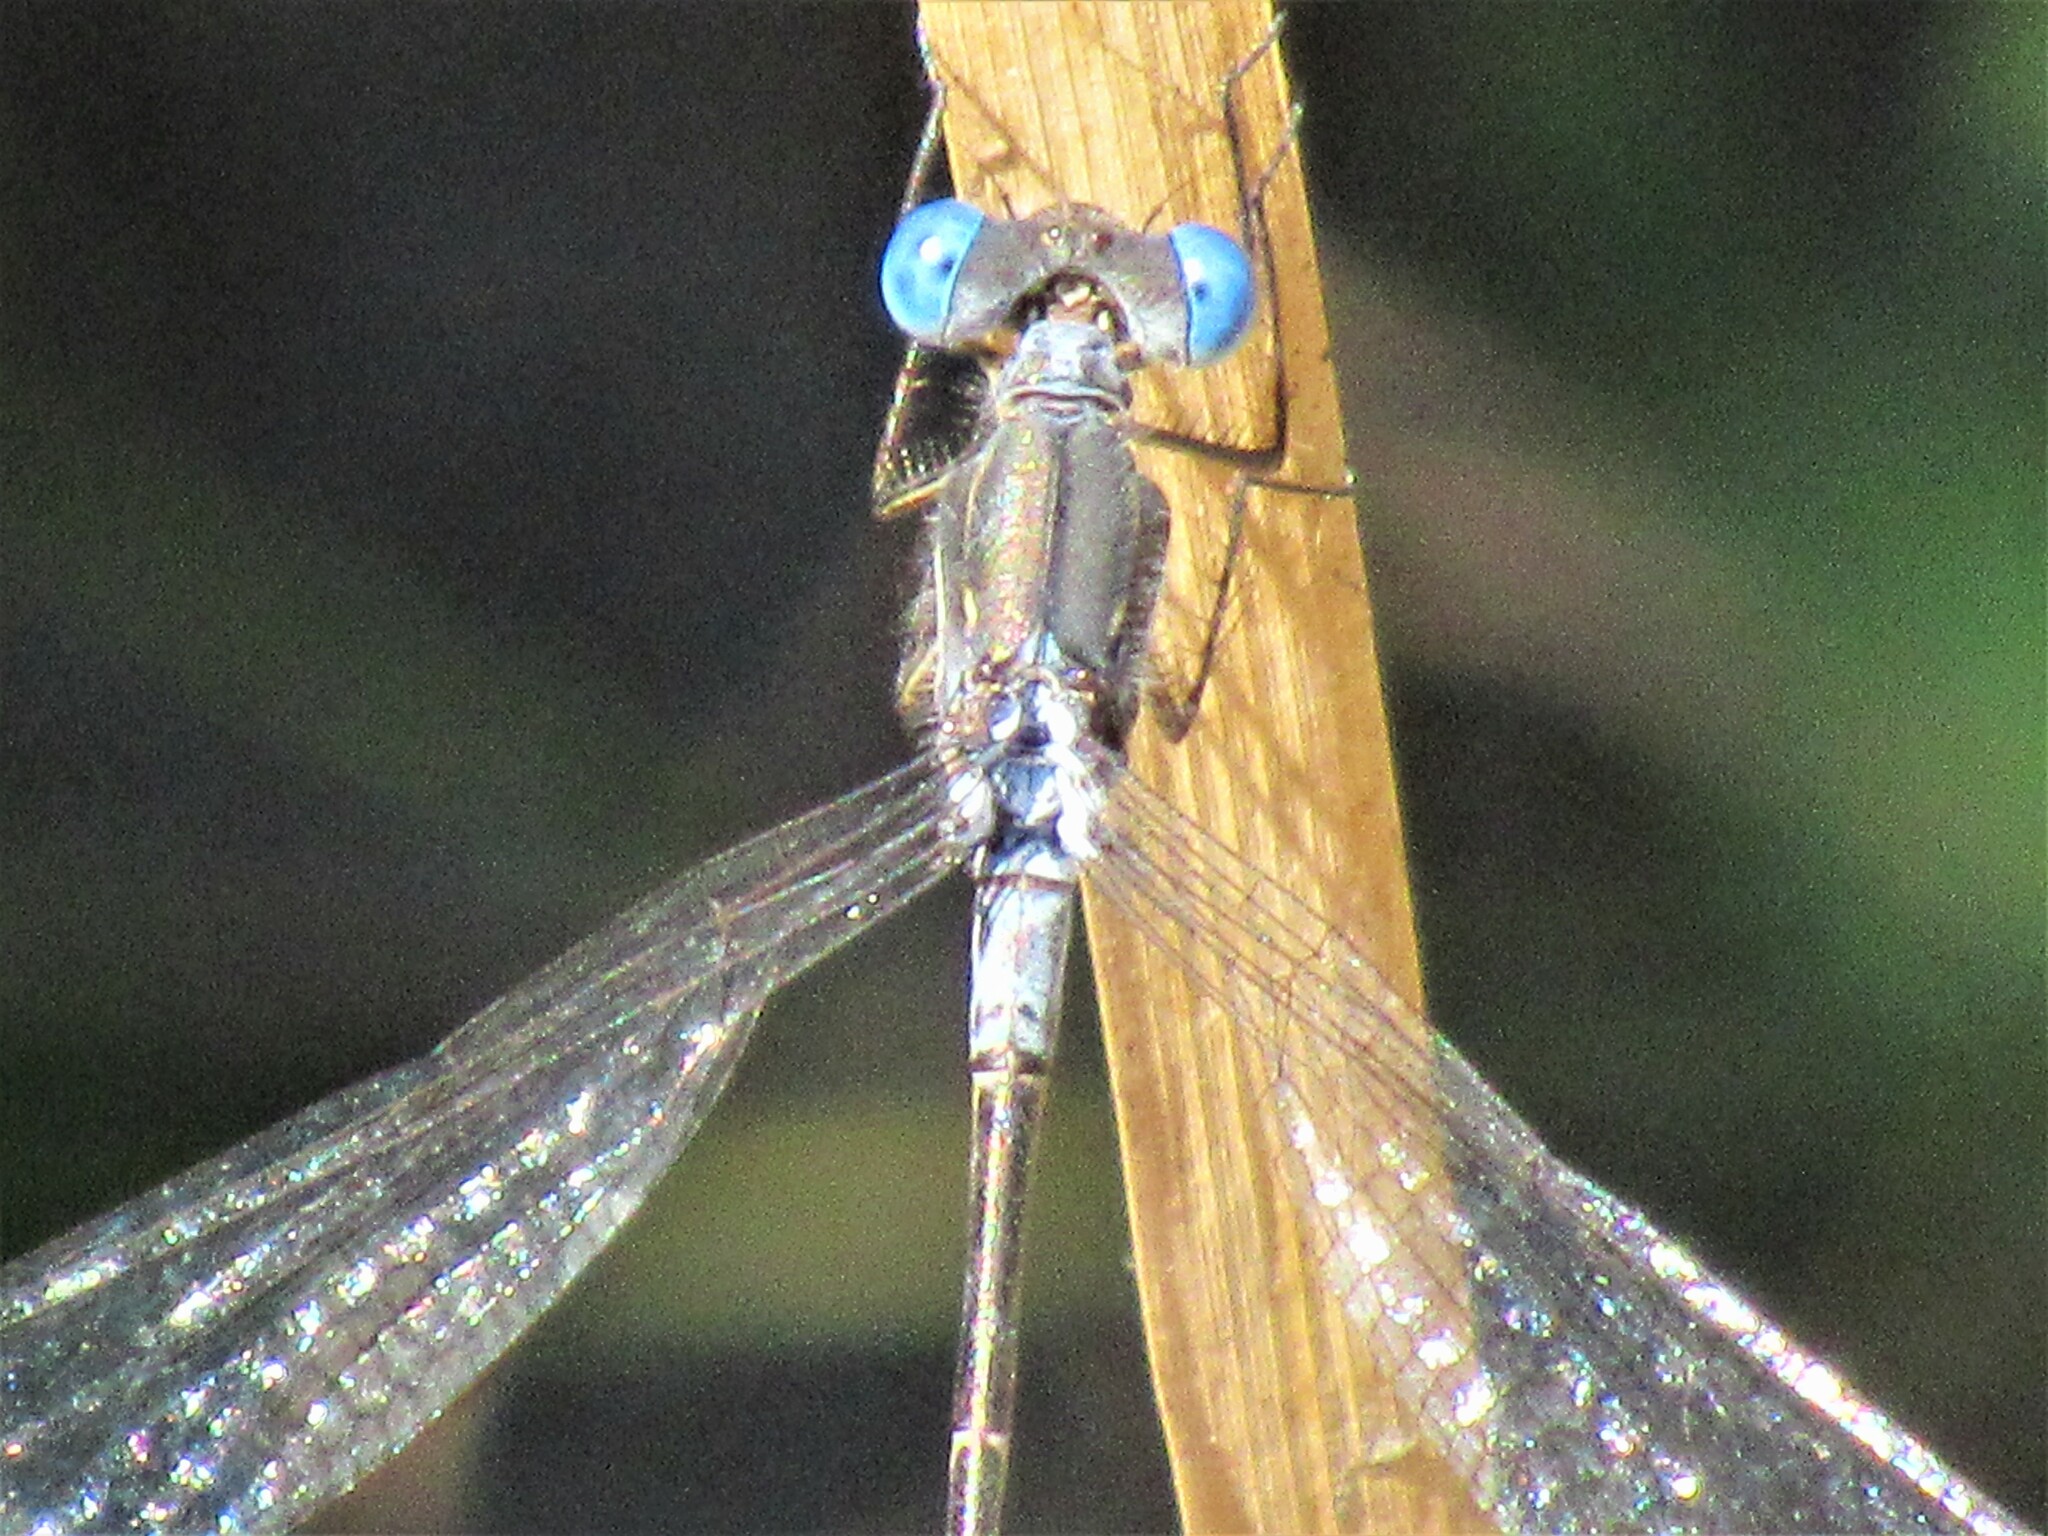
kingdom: Animalia
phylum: Arthropoda
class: Insecta
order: Odonata
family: Lestidae
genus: Lestes
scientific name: Lestes congener
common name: Spotted spreadwing
